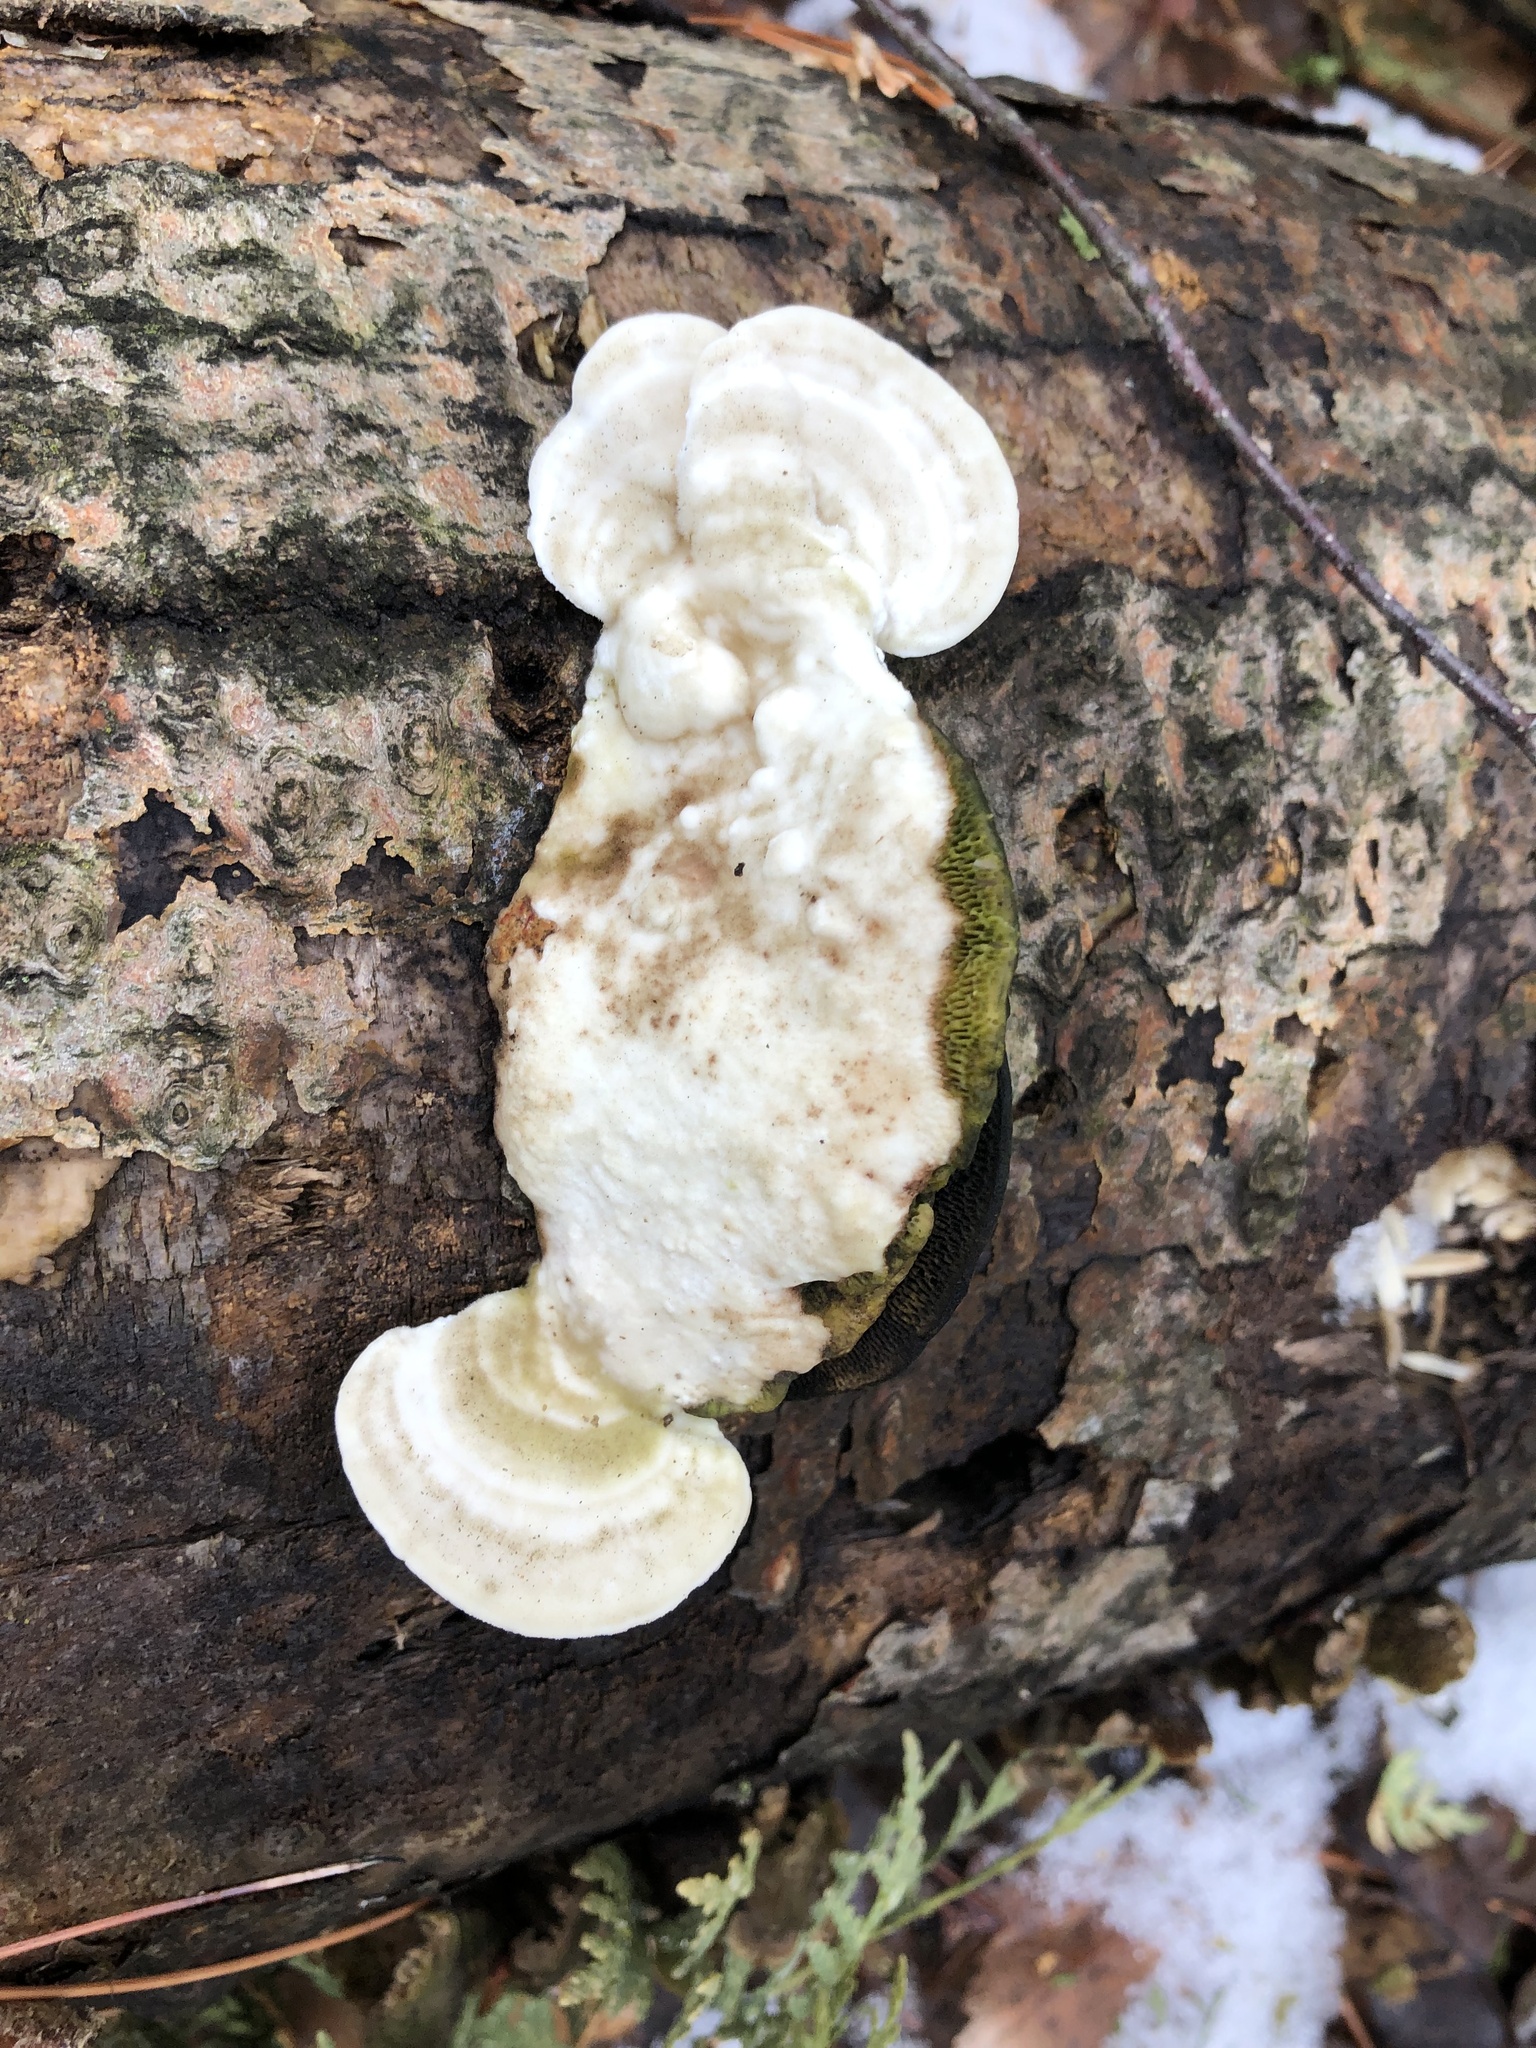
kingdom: Fungi
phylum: Basidiomycota
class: Agaricomycetes
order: Polyporales
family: Polyporaceae
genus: Trametes
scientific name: Trametes gibbosa
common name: Lumpy bracket
